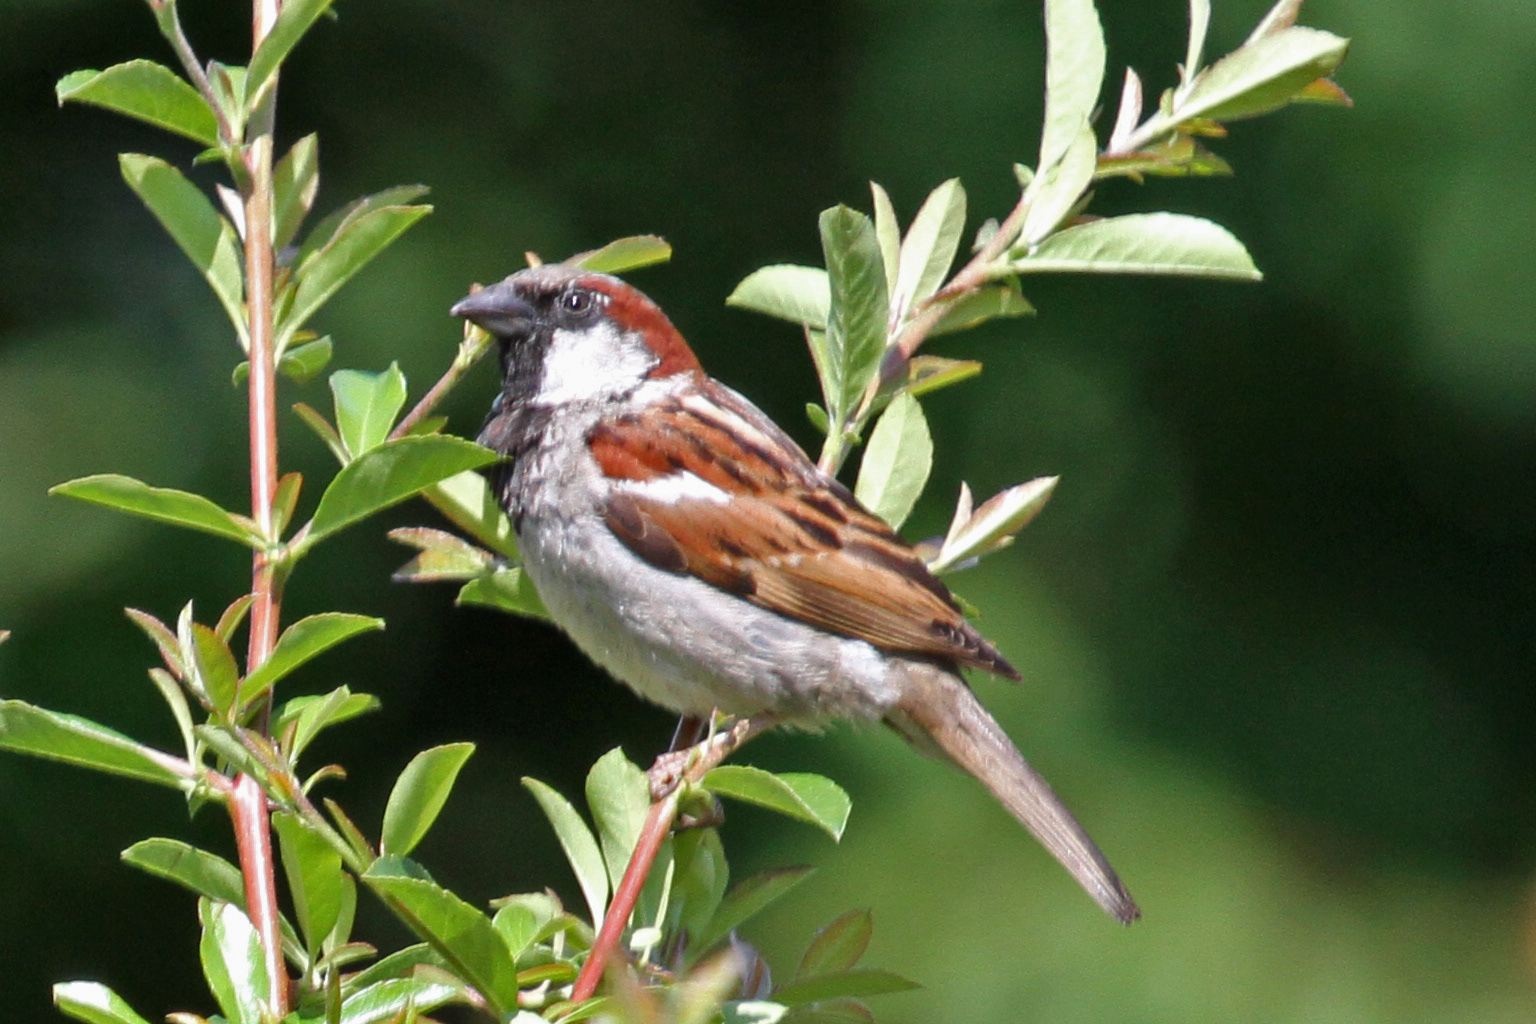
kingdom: Animalia
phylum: Chordata
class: Aves
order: Passeriformes
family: Passeridae
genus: Passer
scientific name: Passer domesticus
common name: House sparrow
